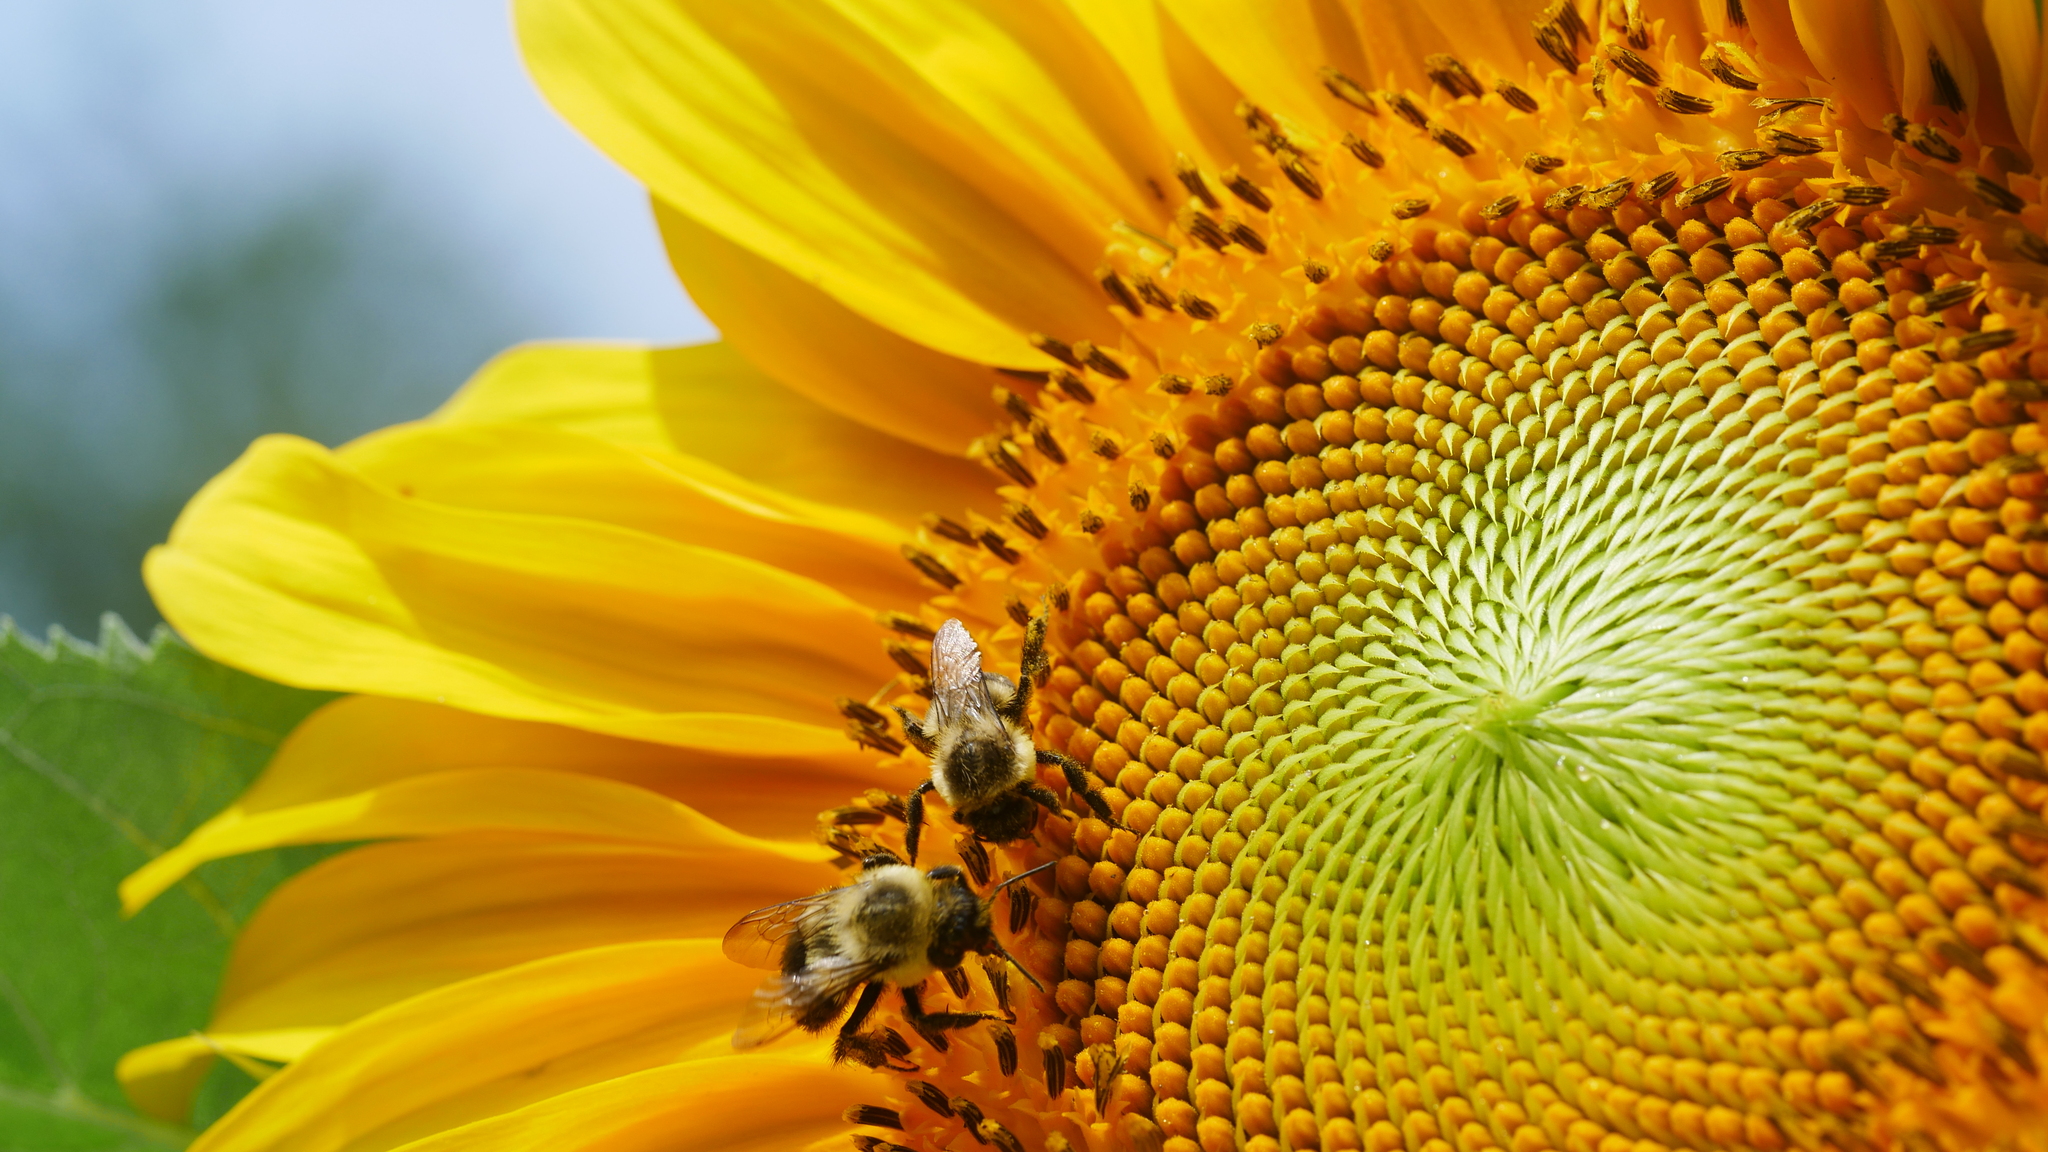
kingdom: Animalia
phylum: Arthropoda
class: Insecta
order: Hymenoptera
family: Apidae
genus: Bombus
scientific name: Bombus impatiens
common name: Common eastern bumble bee
